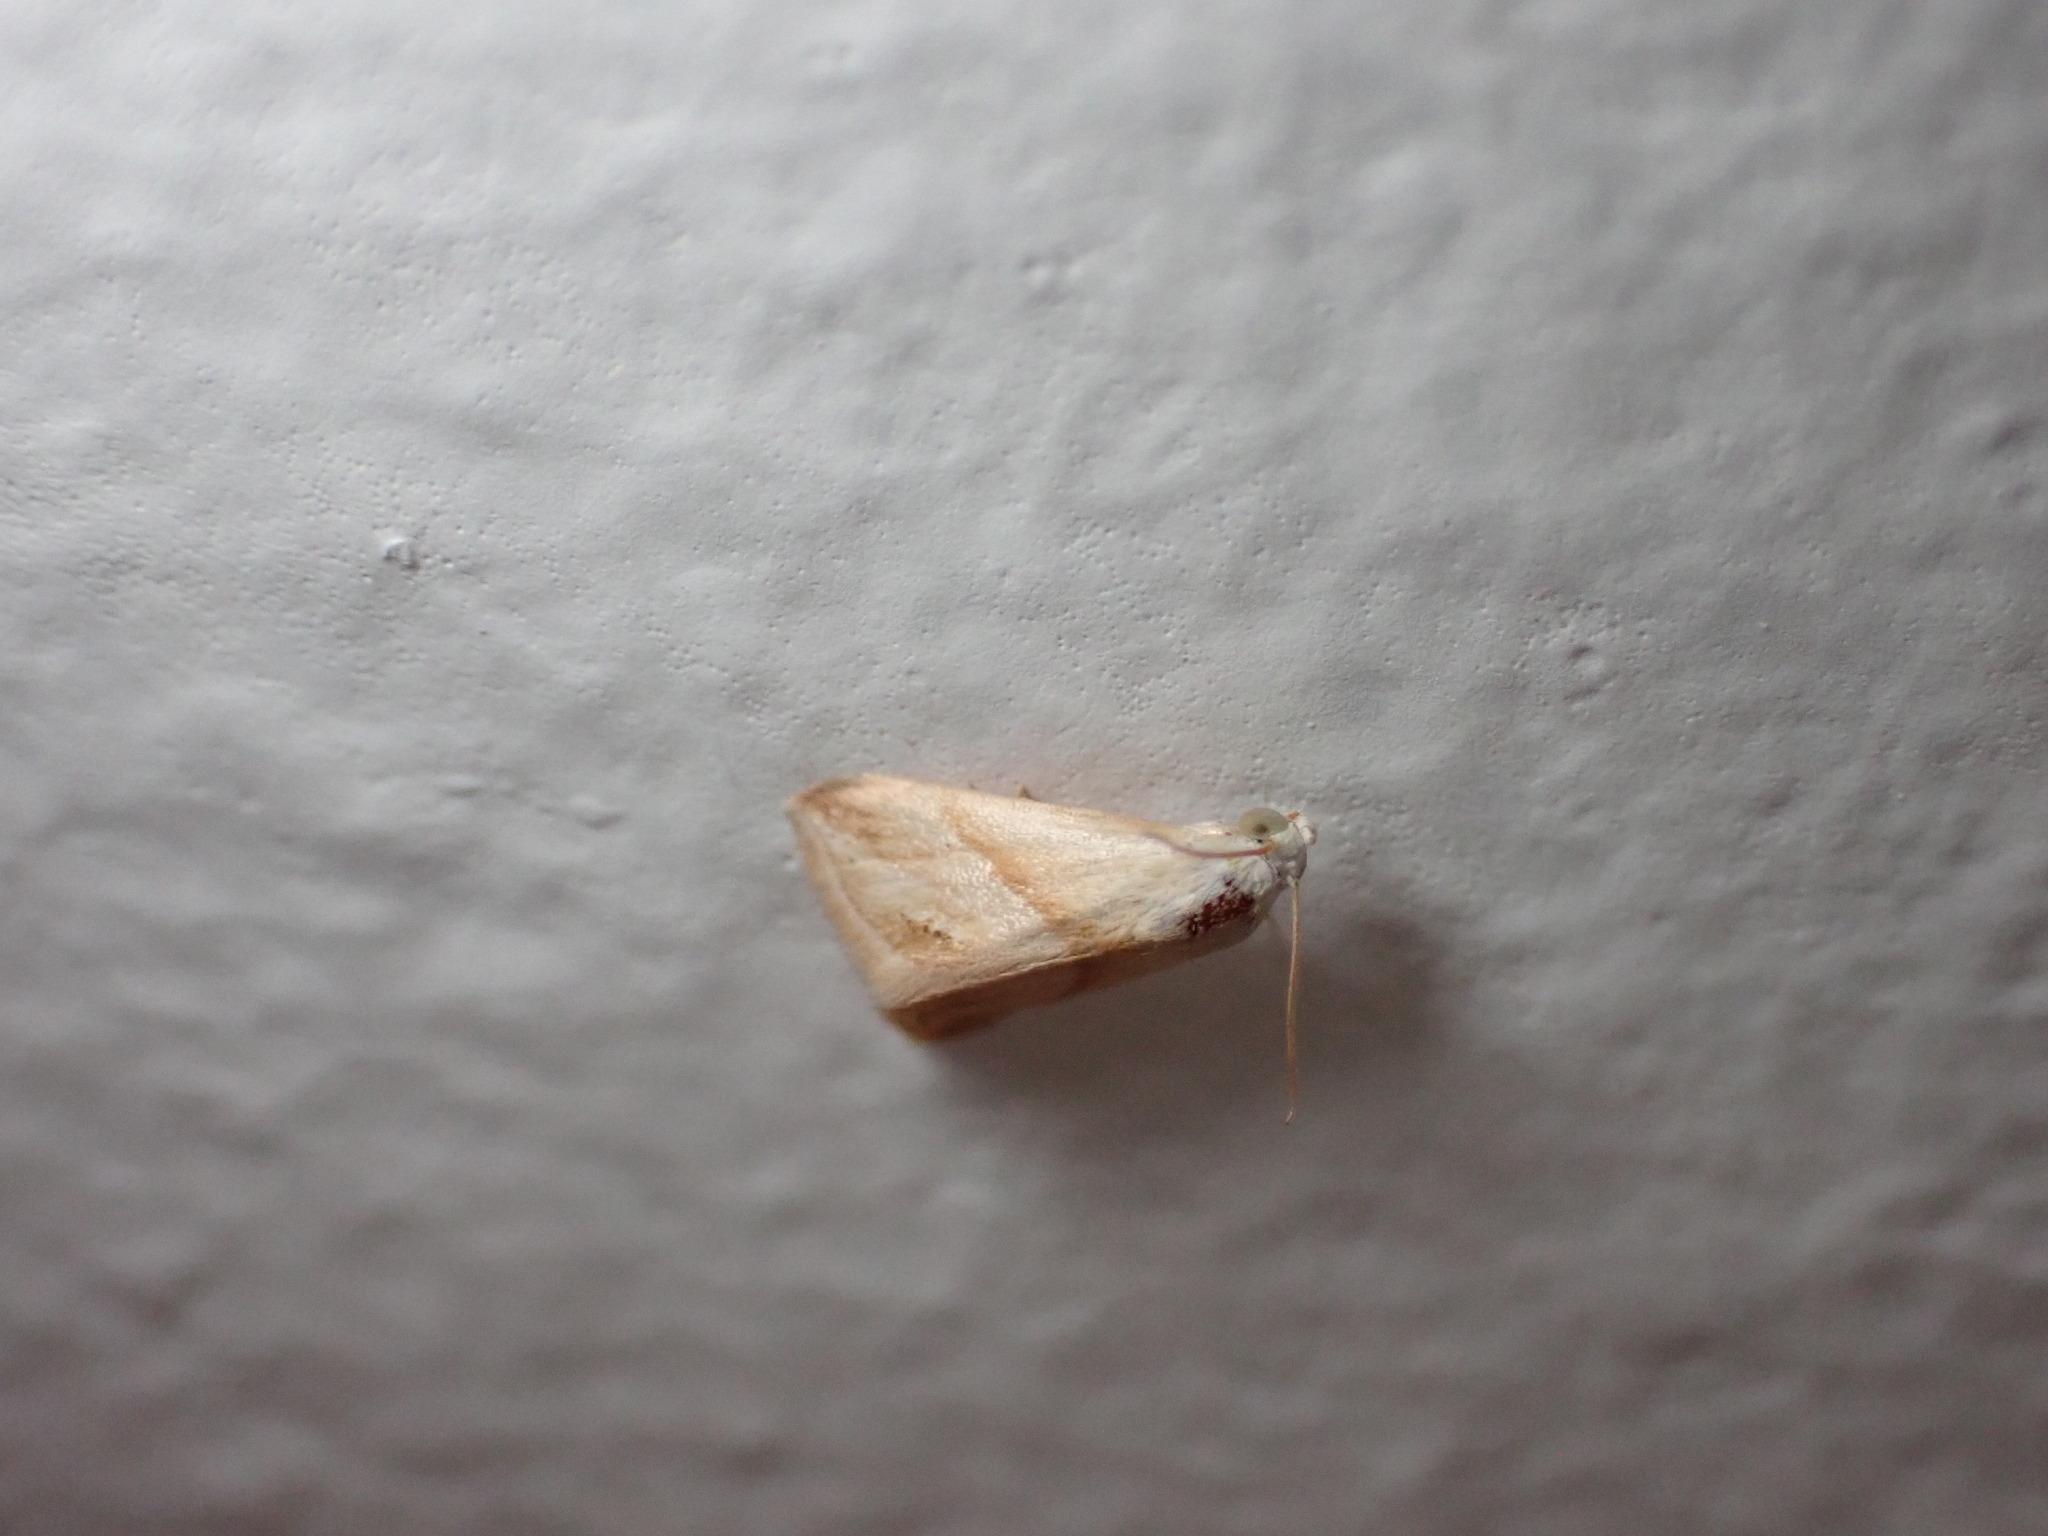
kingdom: Animalia
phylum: Arthropoda
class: Insecta
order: Lepidoptera
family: Noctuidae
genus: Eublemma
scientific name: Eublemma cochylioides
